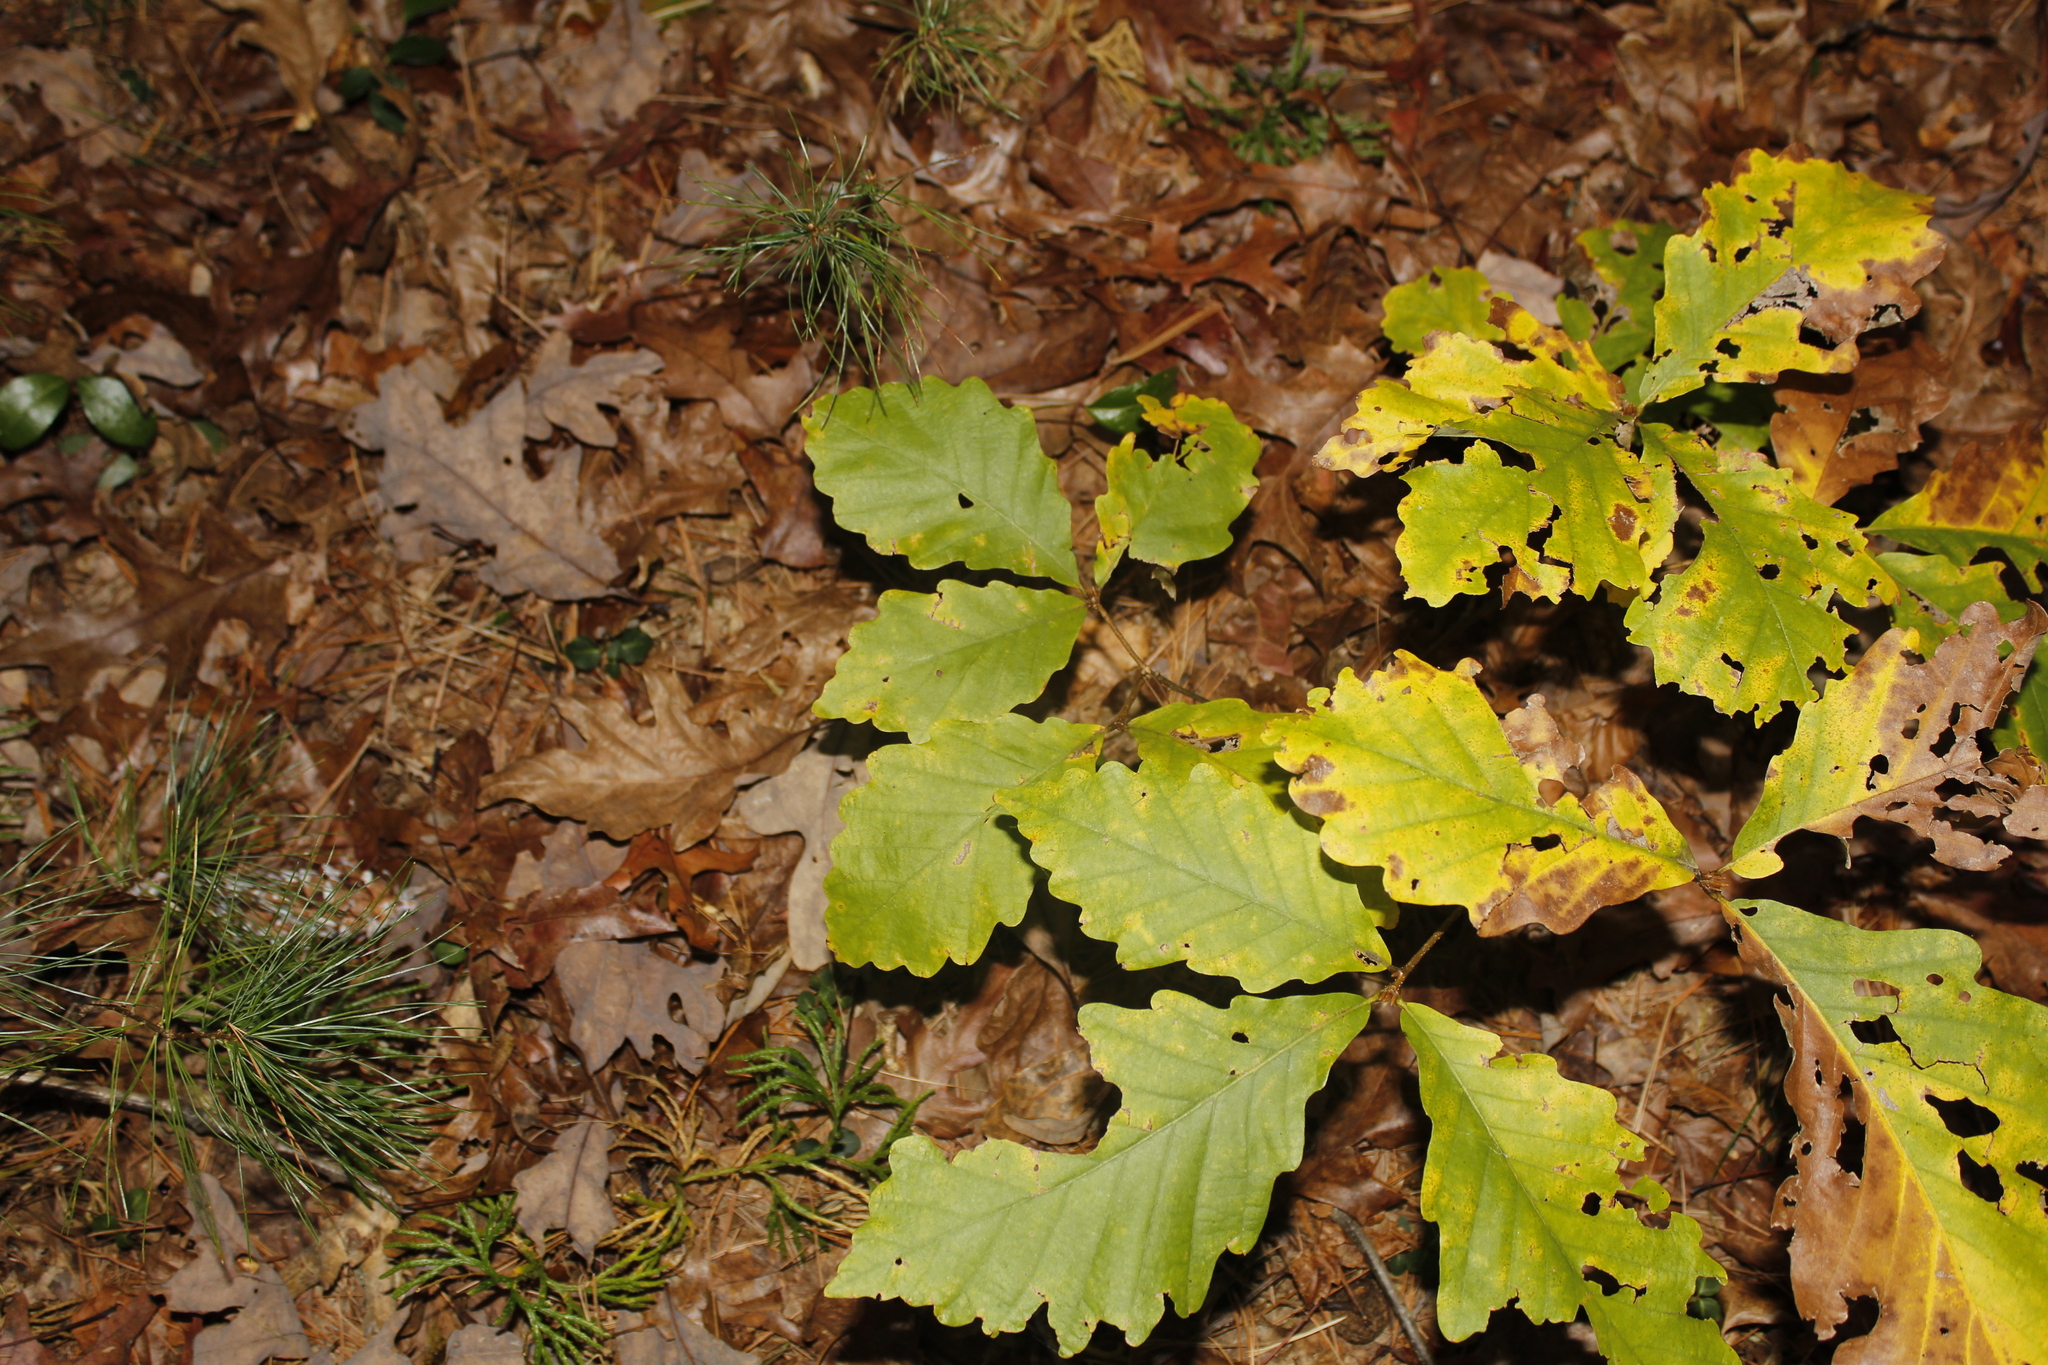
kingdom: Plantae
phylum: Tracheophyta
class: Magnoliopsida
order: Fagales
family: Fagaceae
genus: Quercus
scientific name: Quercus montana
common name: Chestnut oak
